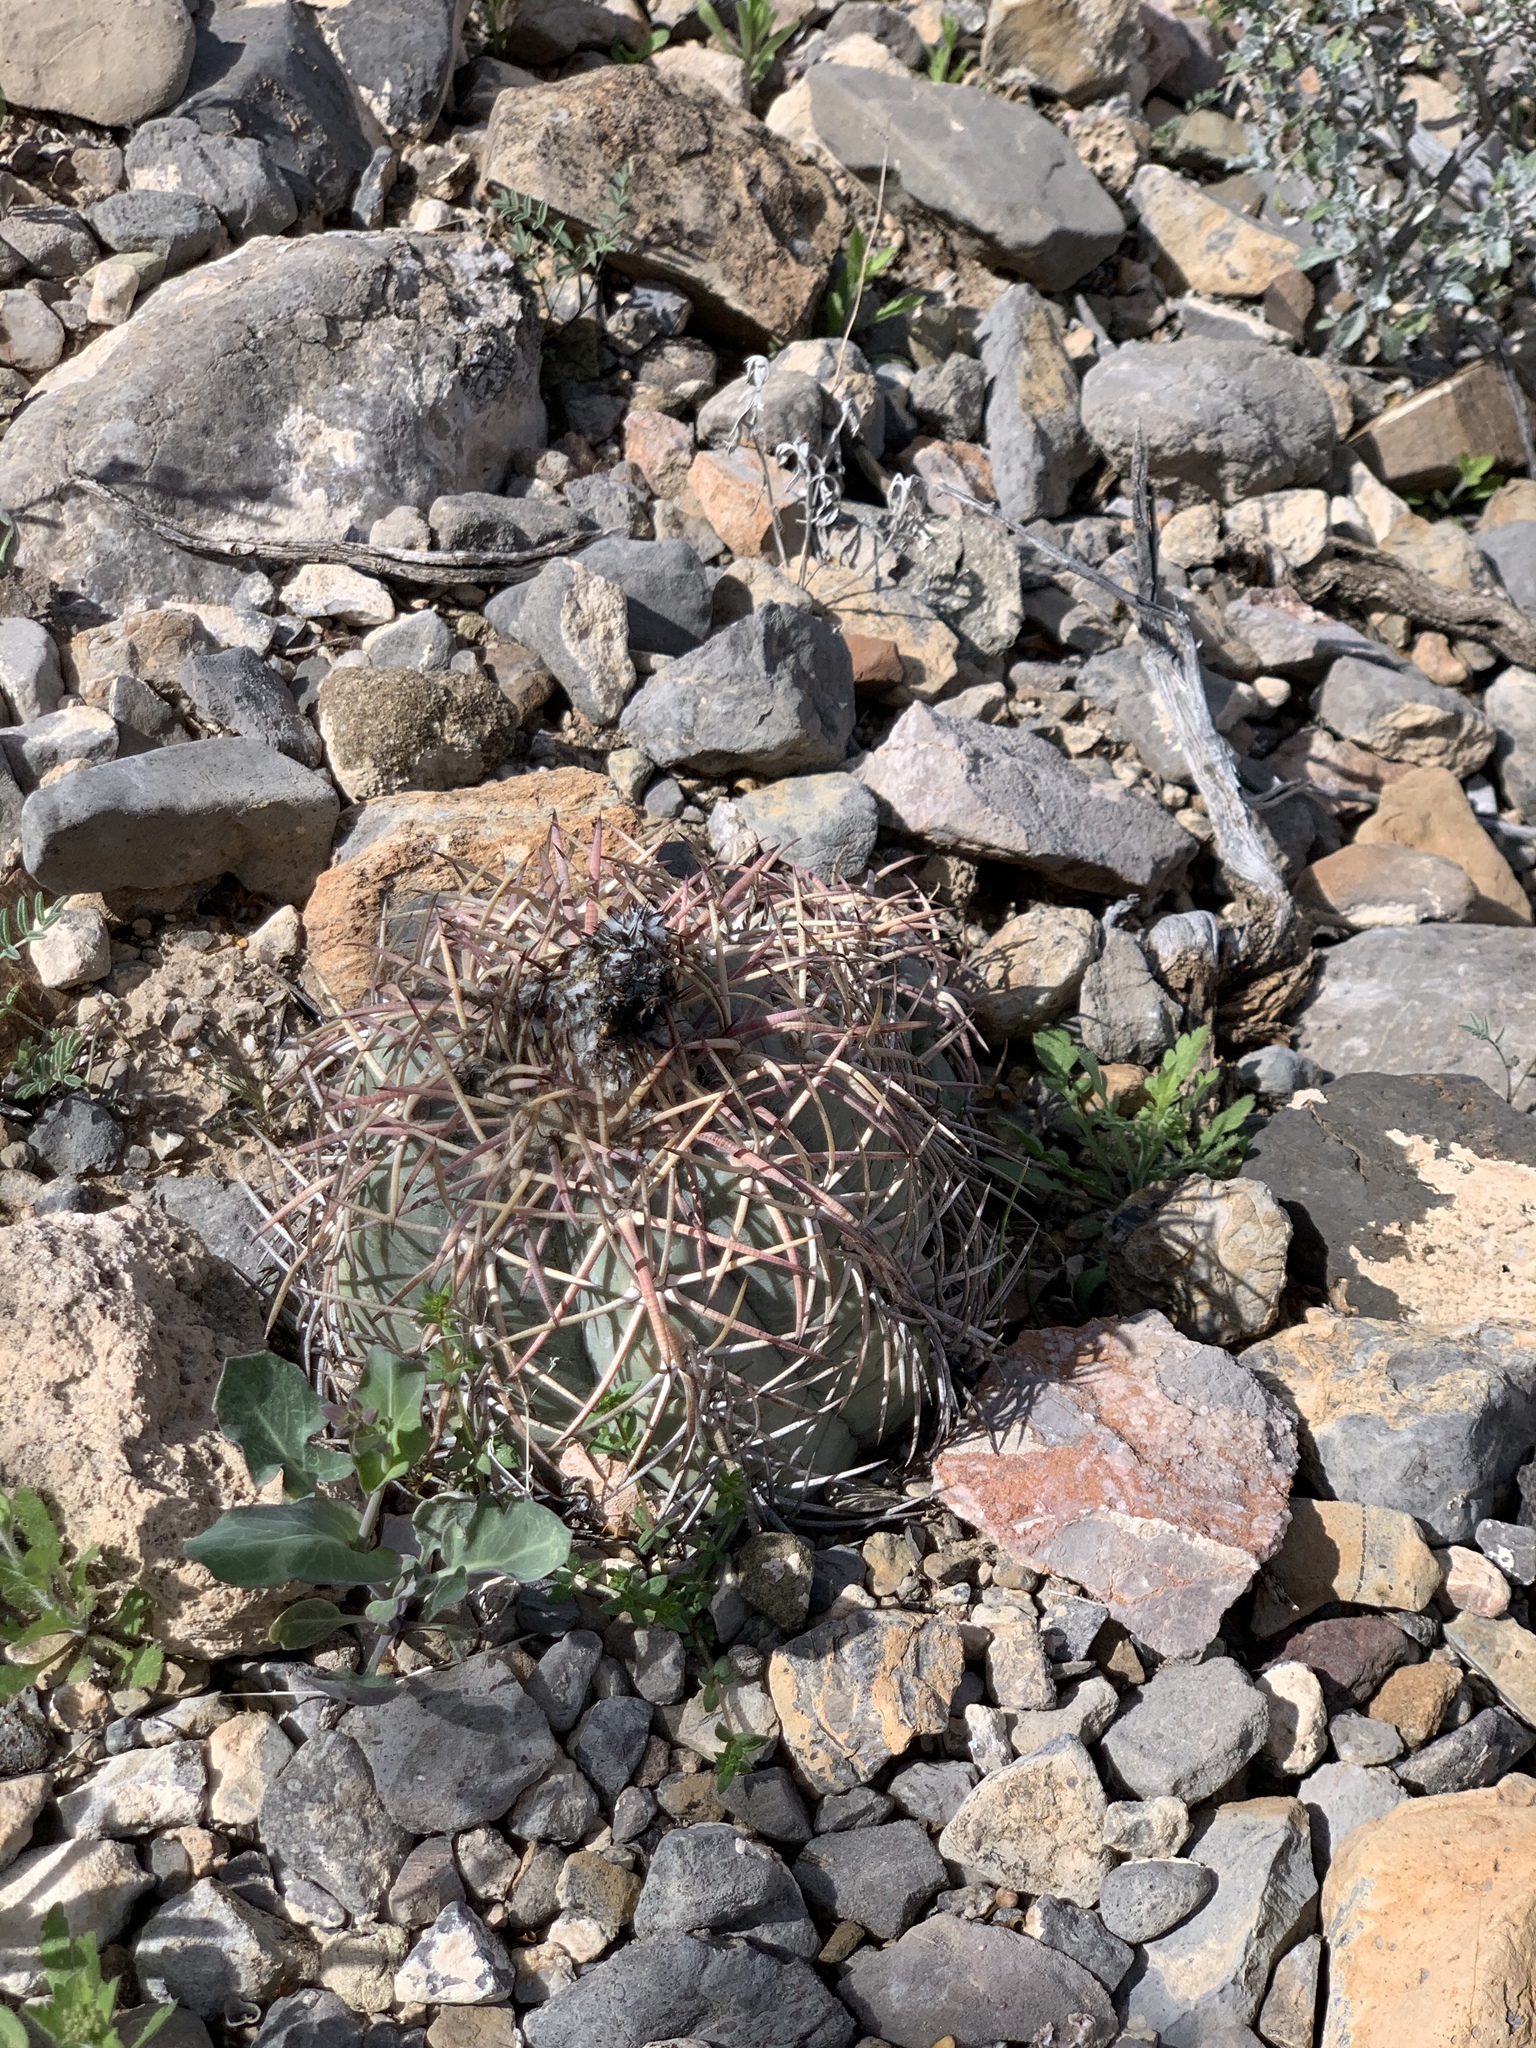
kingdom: Plantae
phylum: Tracheophyta
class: Magnoliopsida
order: Caryophyllales
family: Cactaceae
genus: Echinocactus
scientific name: Echinocactus horizonthalonius
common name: Devilshead
